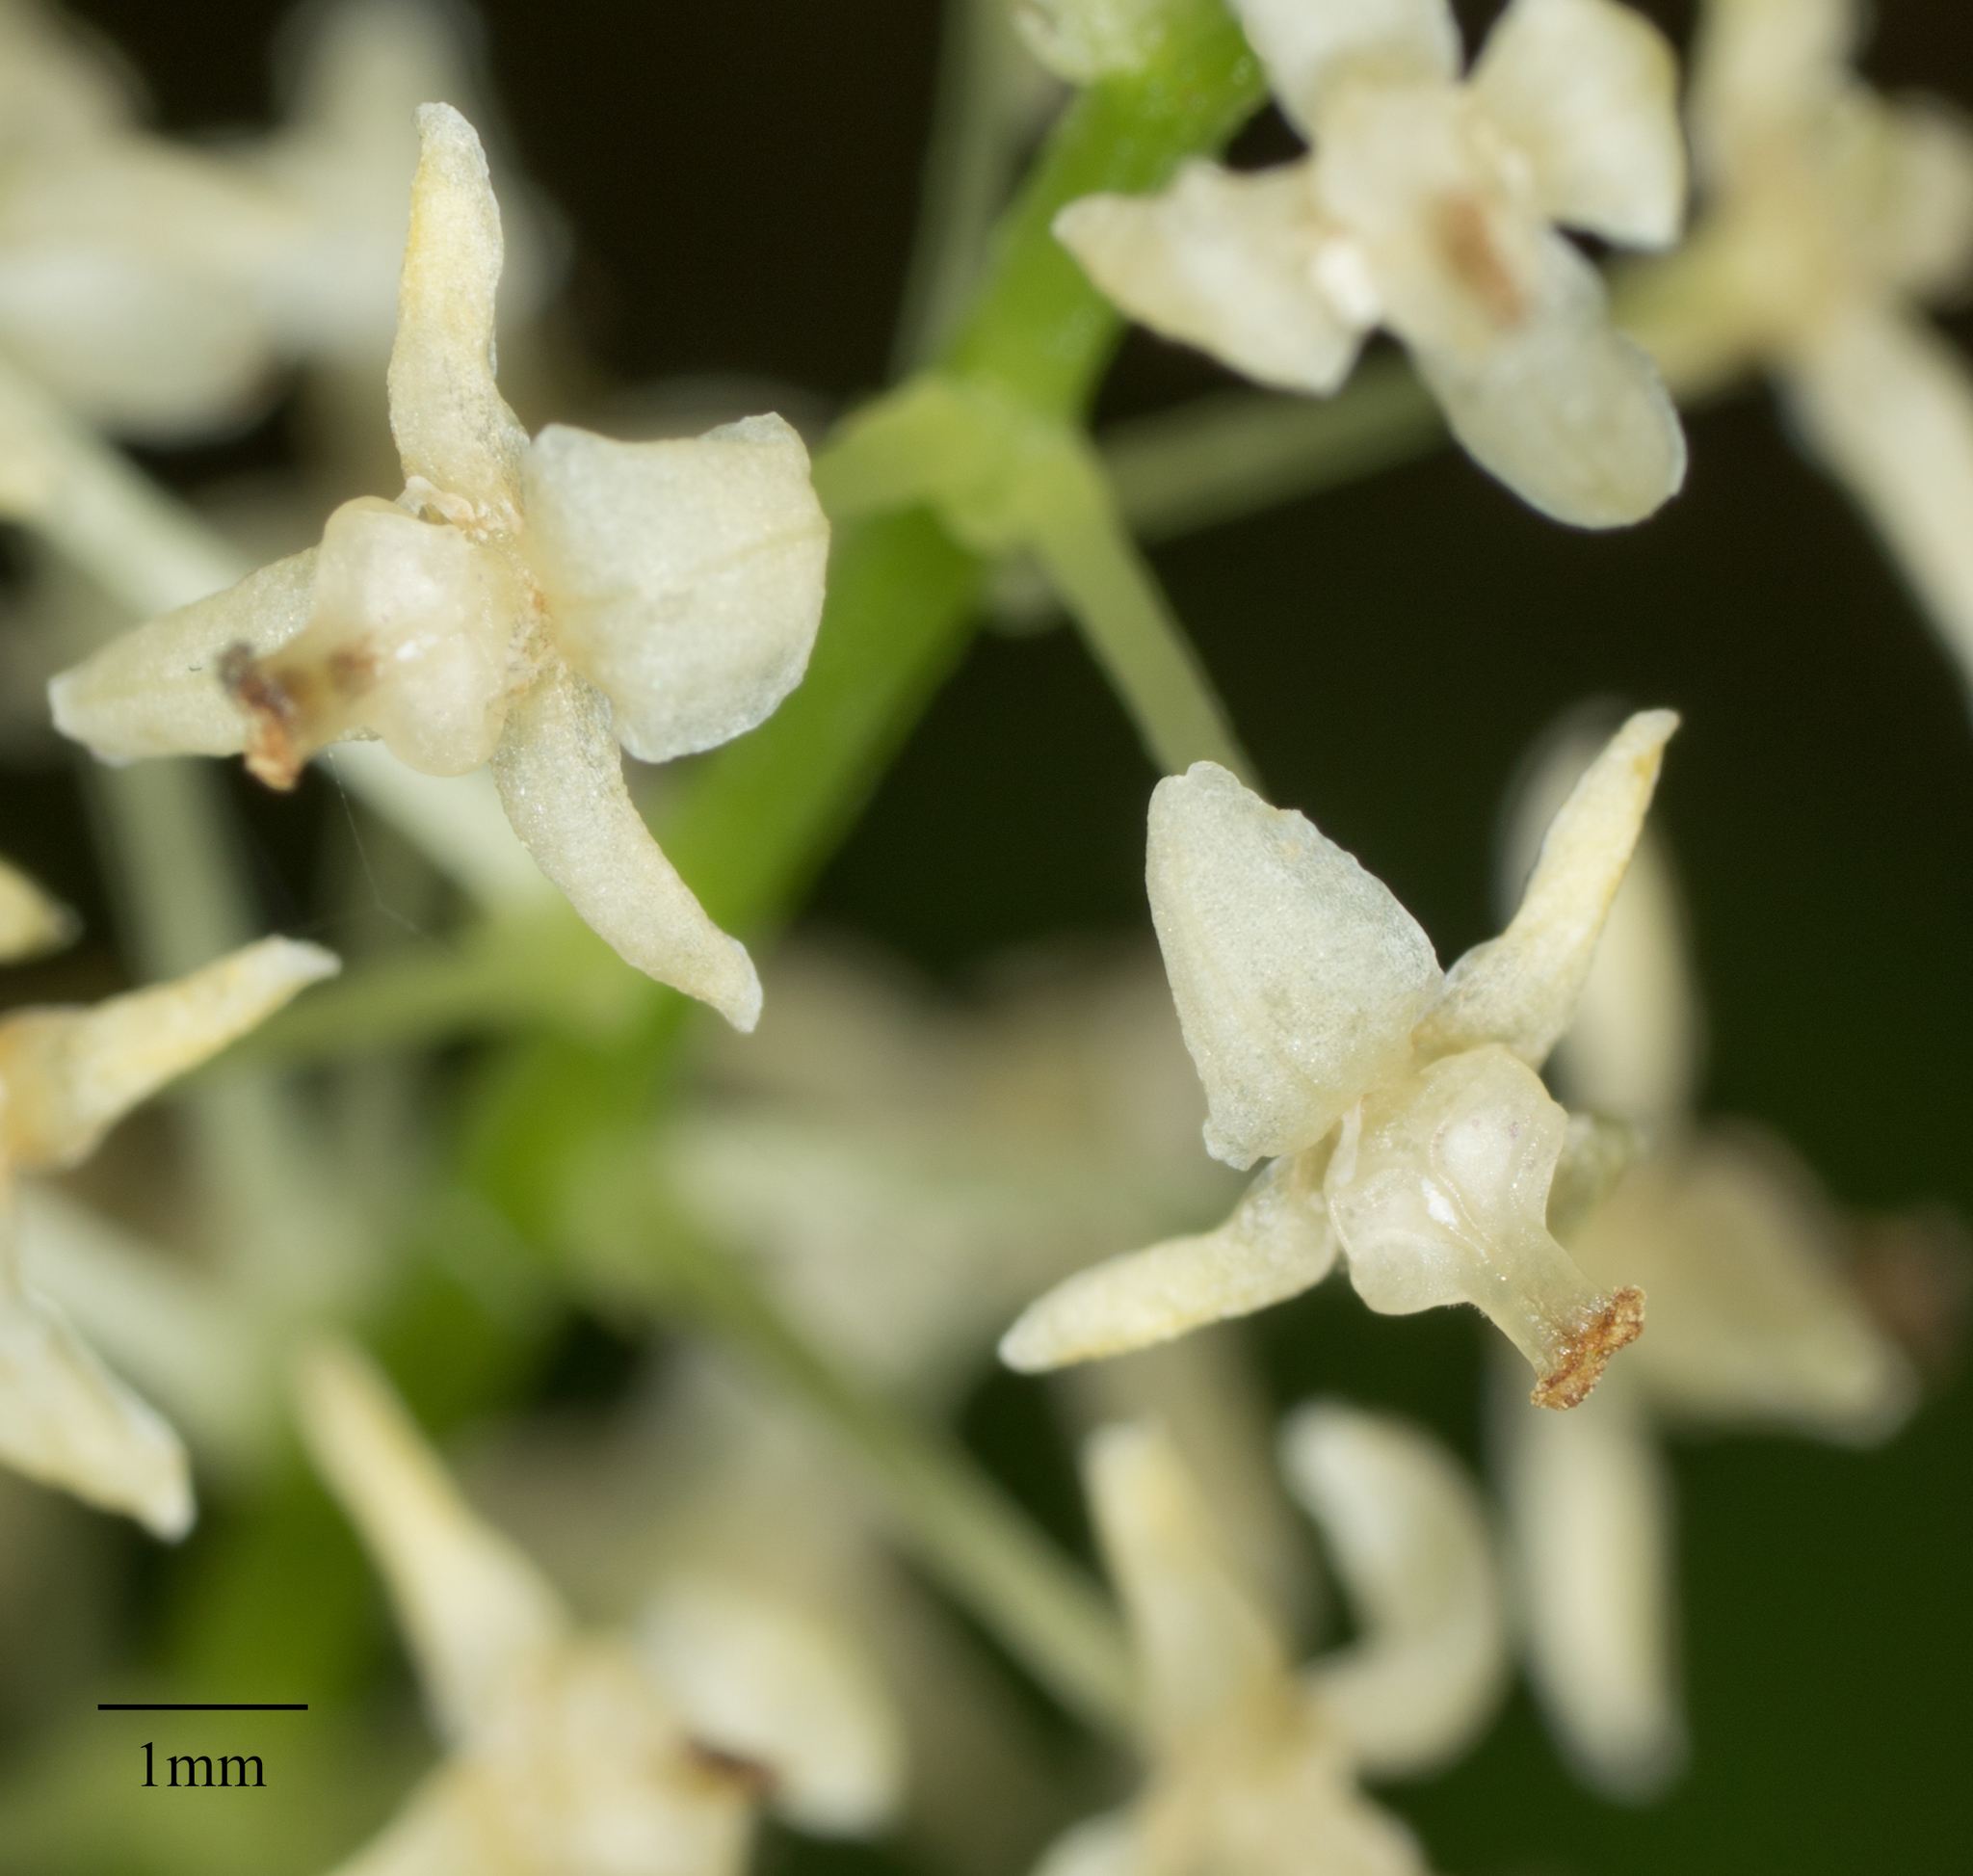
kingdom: Plantae
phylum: Tracheophyta
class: Liliopsida
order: Asparagales
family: Asparagaceae
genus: Maianthemum
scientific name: Maianthemum dilatatum
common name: False lily-of-the-valley
